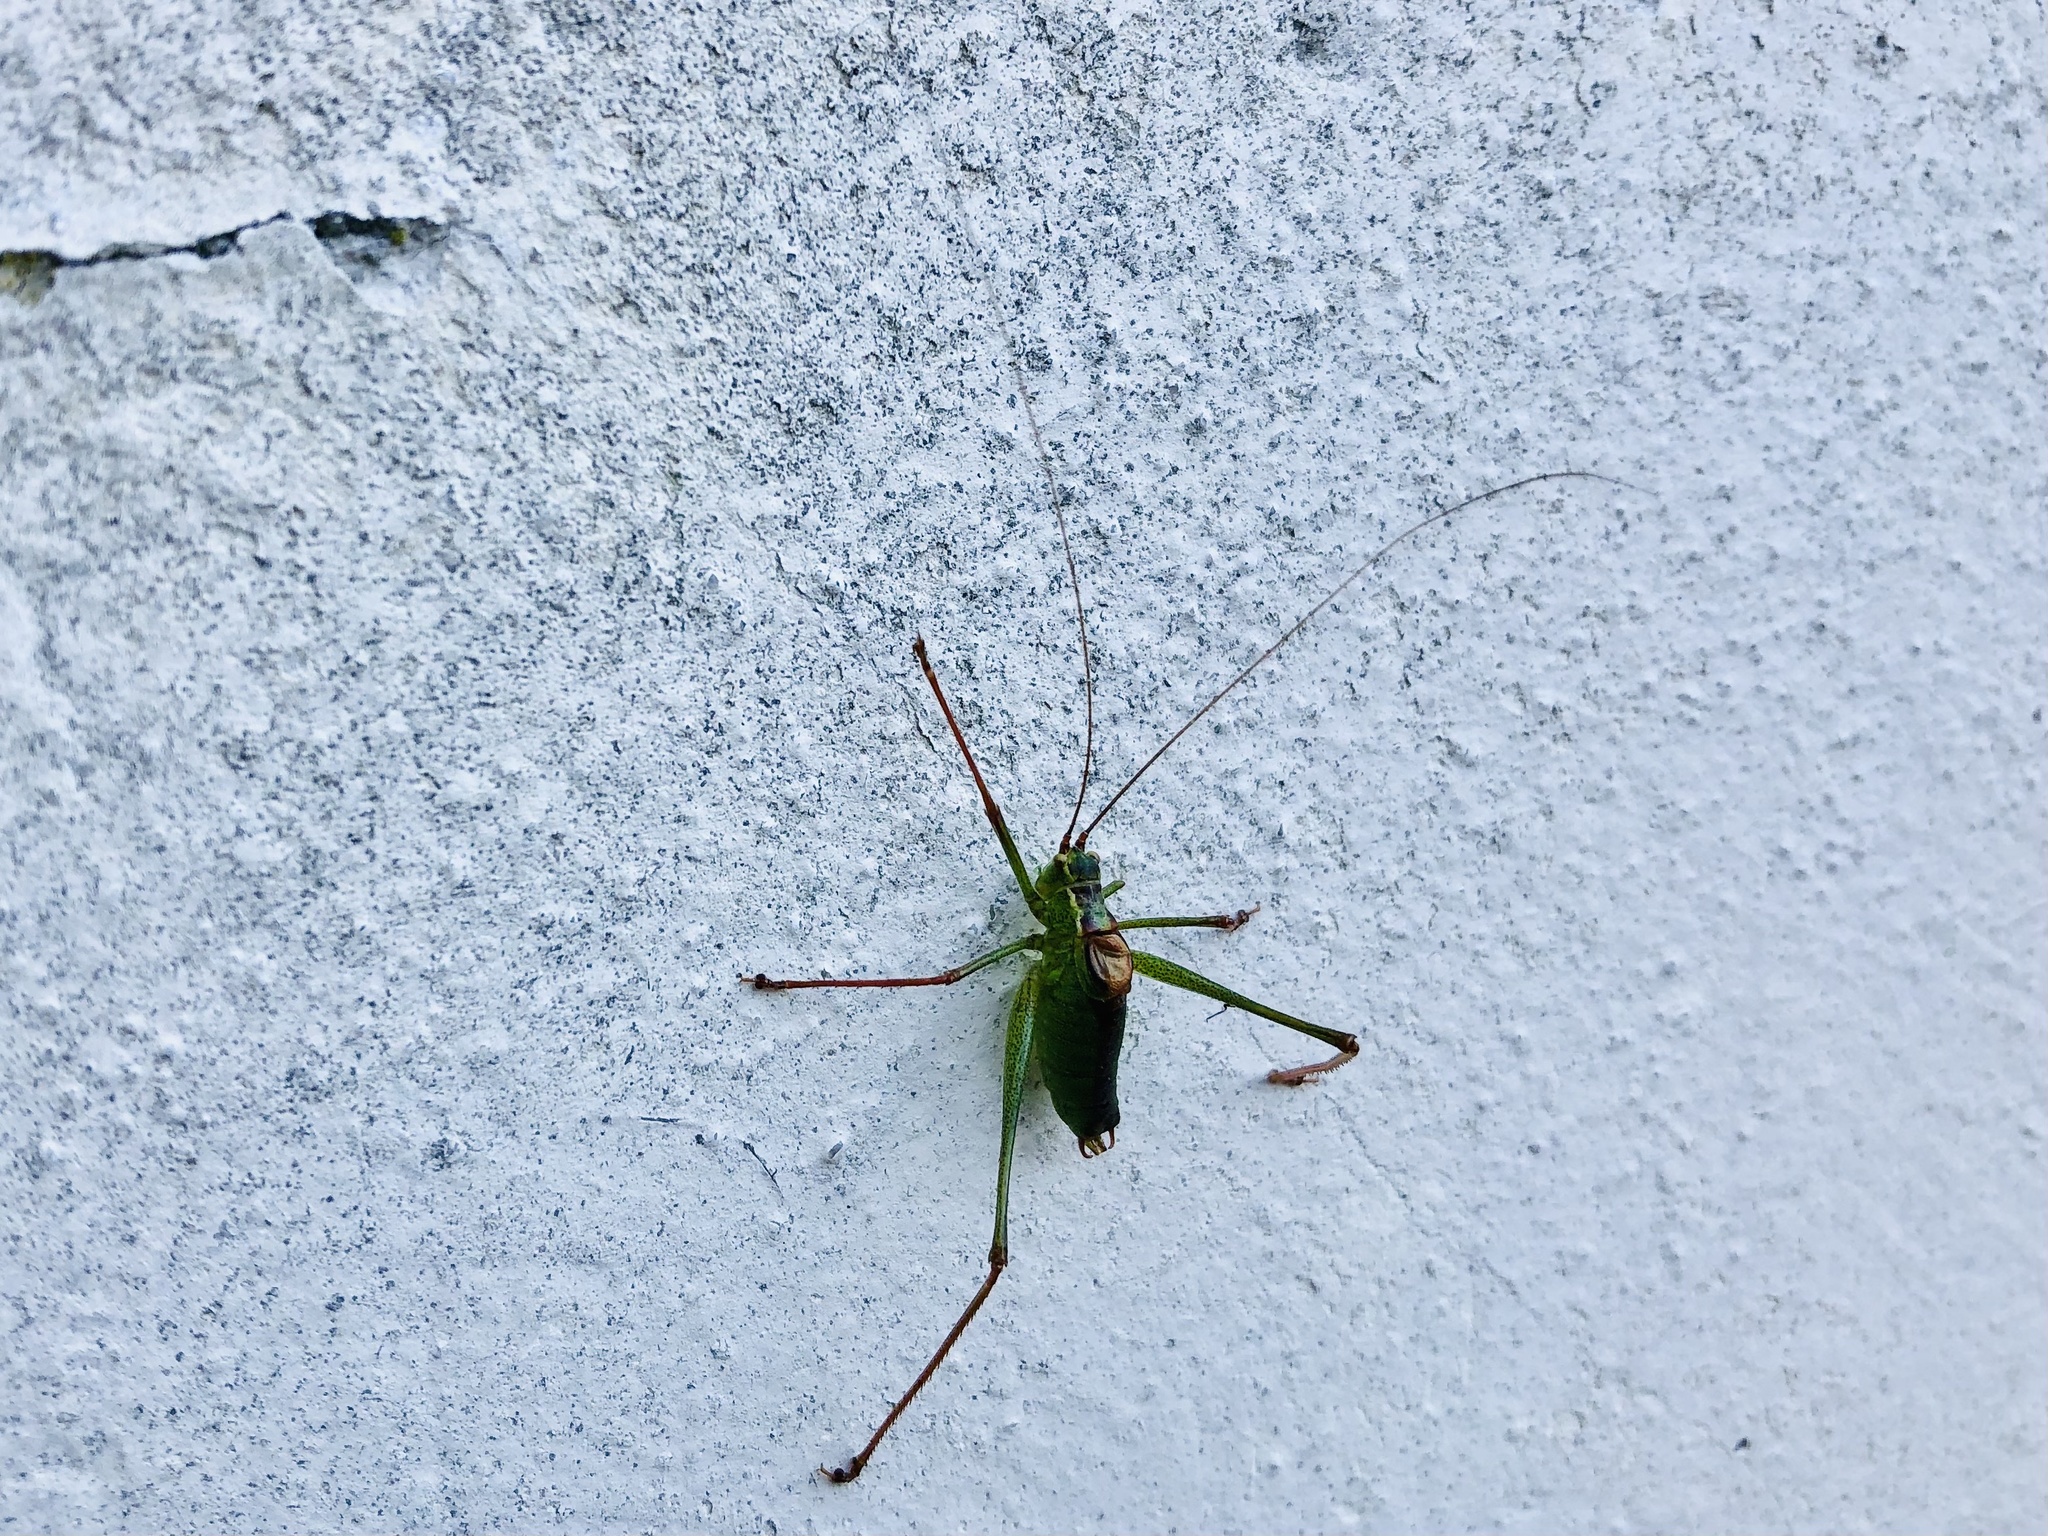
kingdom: Animalia
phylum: Arthropoda
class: Insecta
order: Orthoptera
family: Tettigoniidae
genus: Leptophyes
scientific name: Leptophyes punctatissima
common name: Speckled bush-cricket
